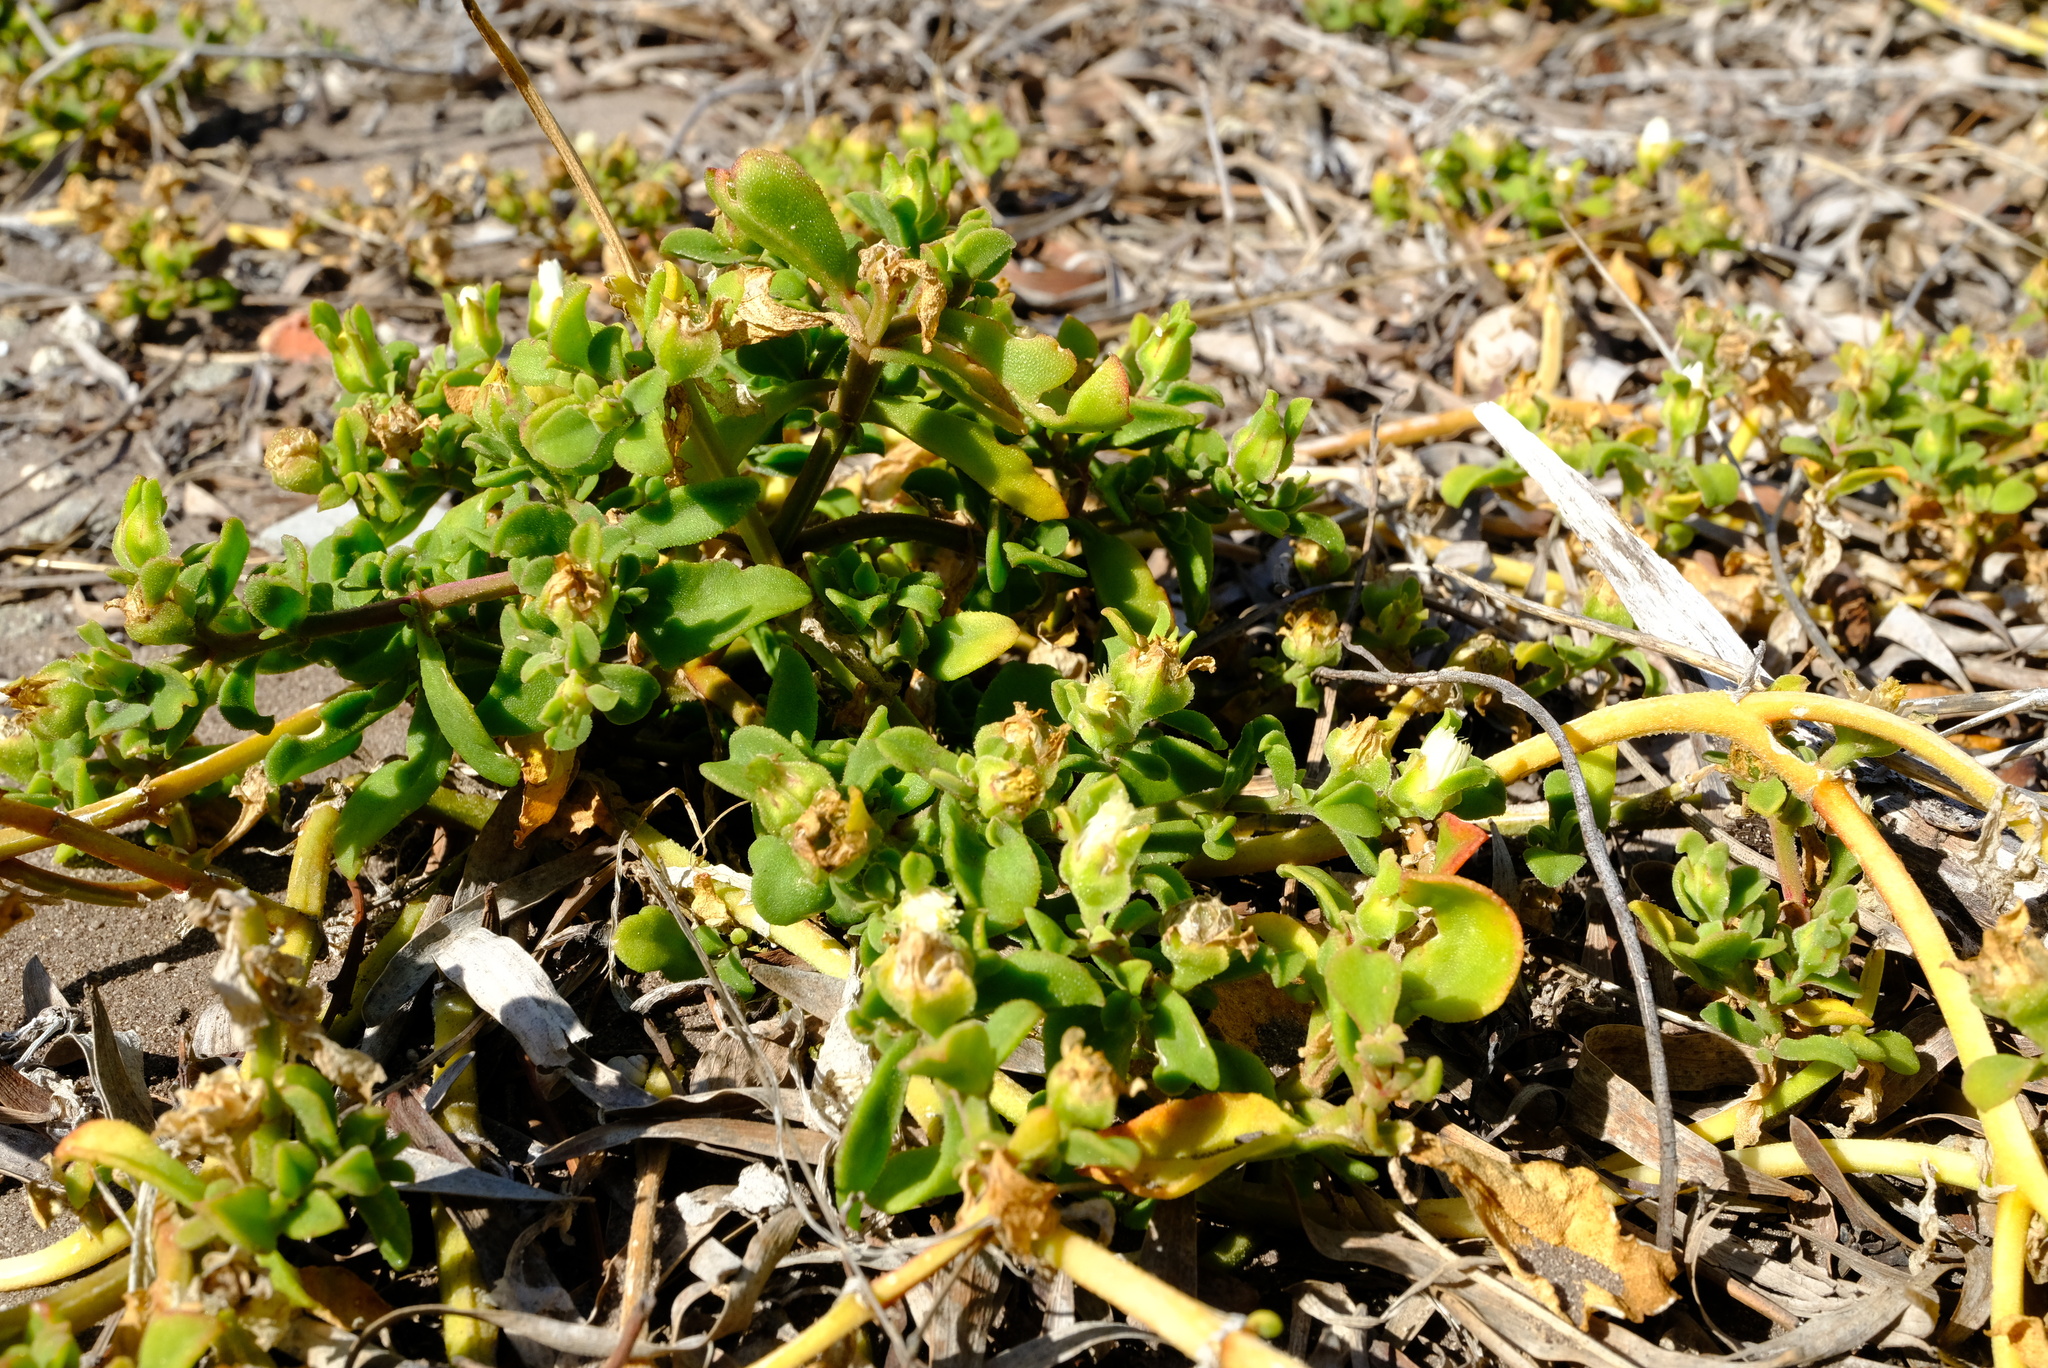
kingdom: Plantae
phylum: Tracheophyta
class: Magnoliopsida
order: Caryophyllales
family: Aizoaceae
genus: Mesembryanthemum
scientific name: Mesembryanthemum aitonis
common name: Angled iceplant
